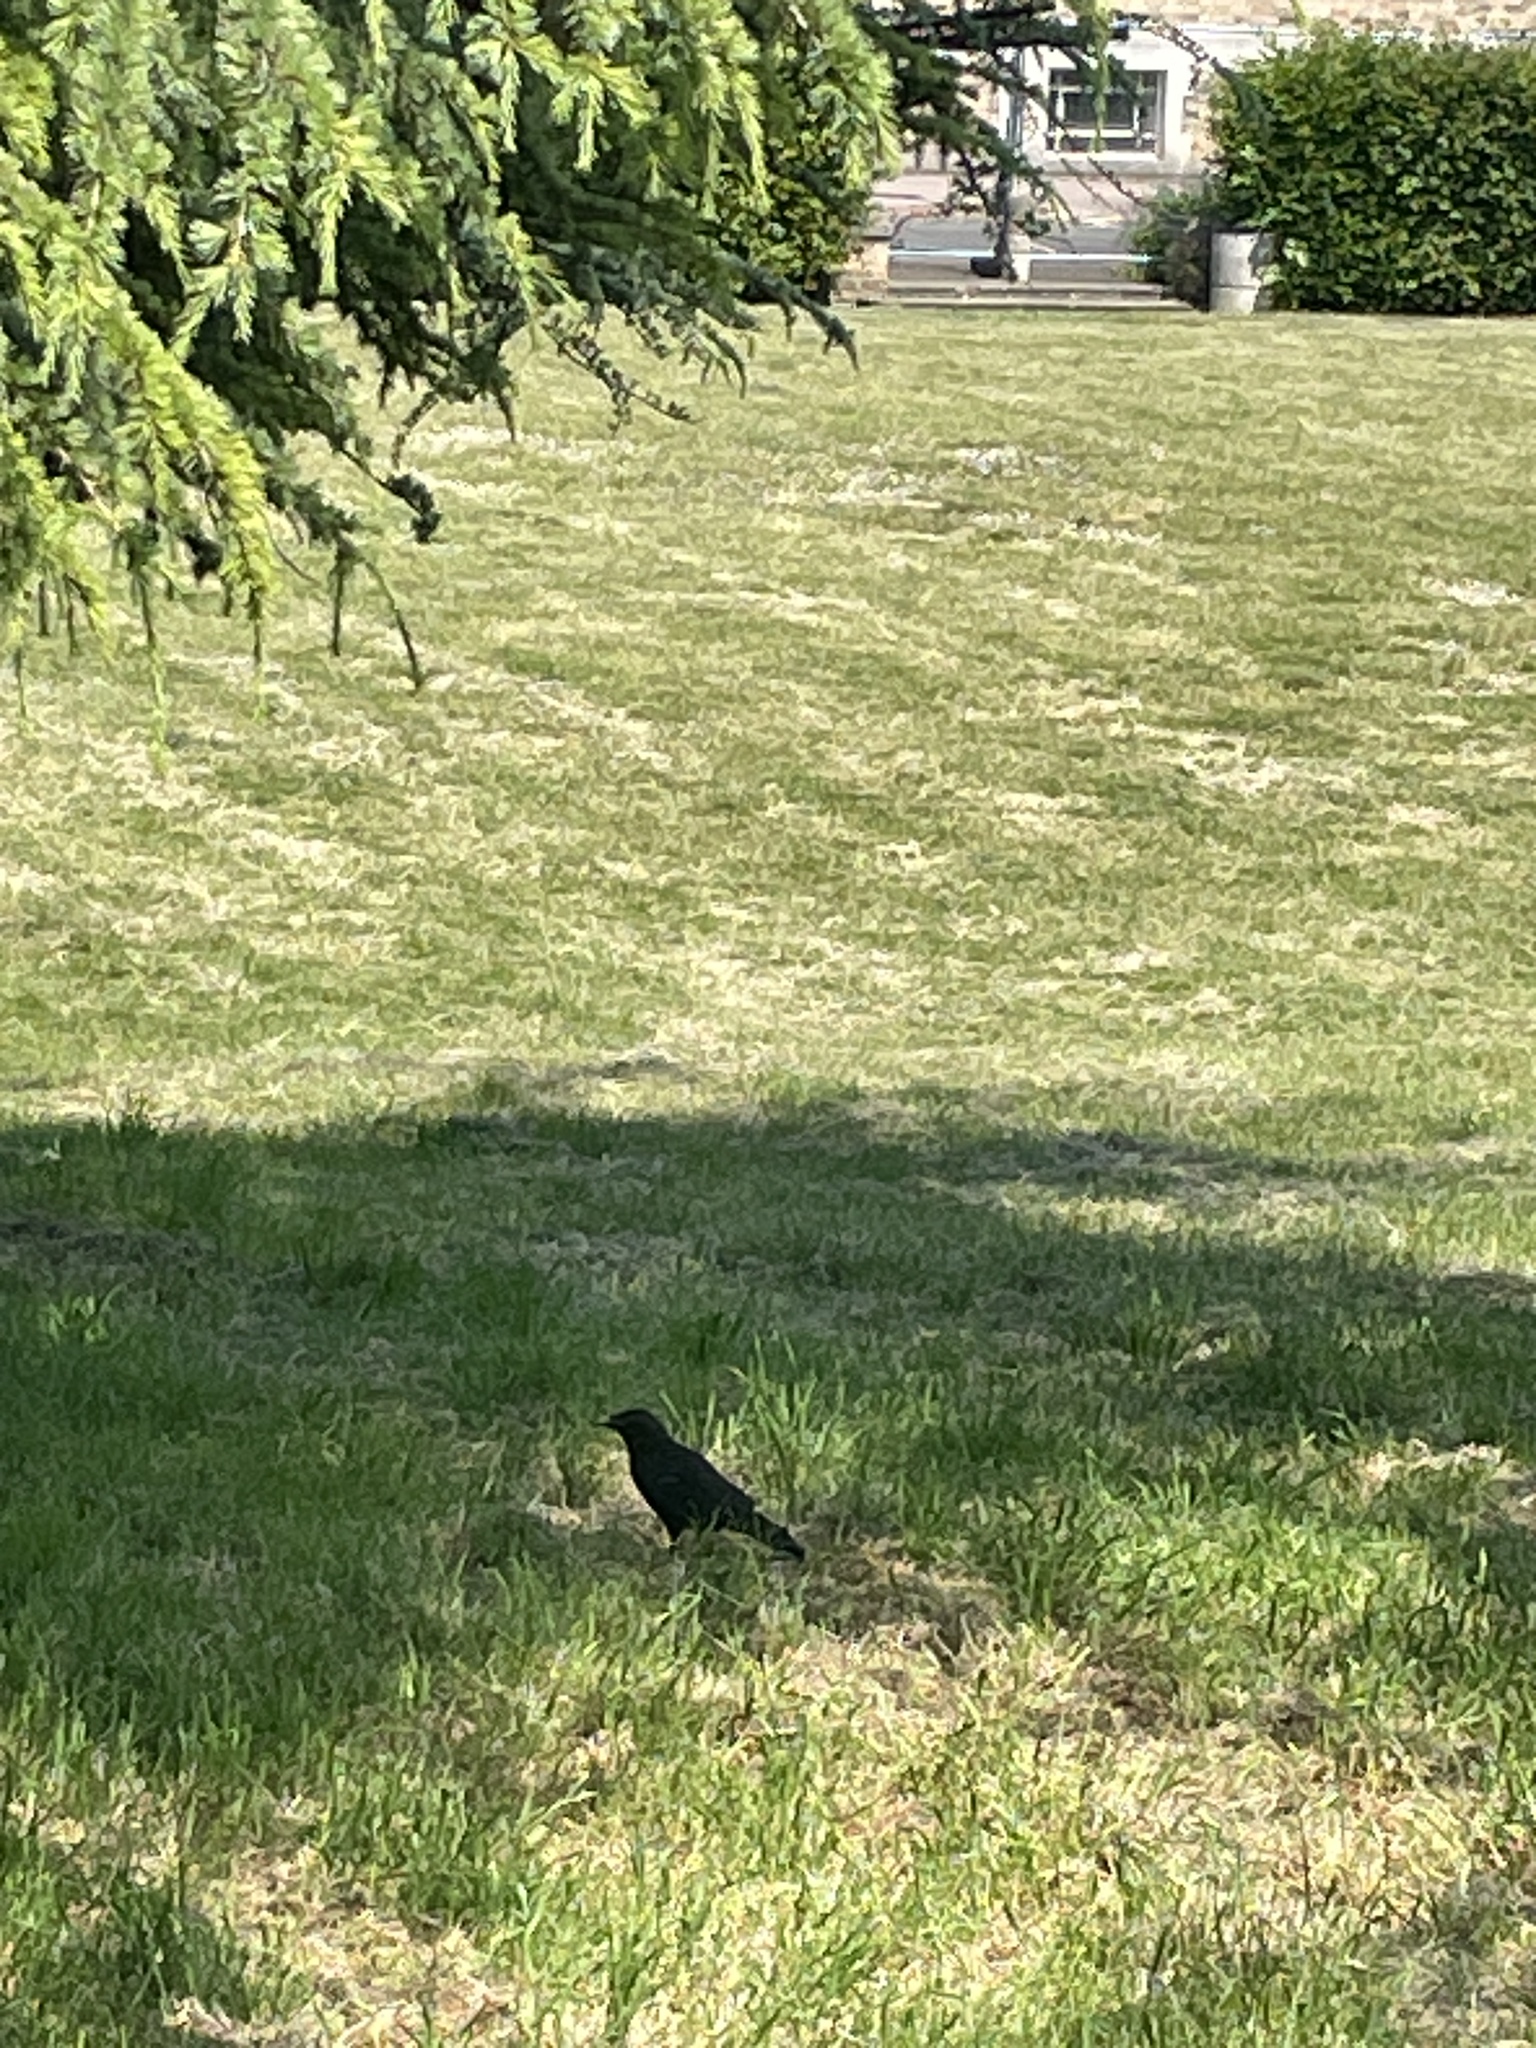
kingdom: Animalia
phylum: Chordata
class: Aves
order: Passeriformes
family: Corvidae
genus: Corvus
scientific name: Corvus corone
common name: Carrion crow
